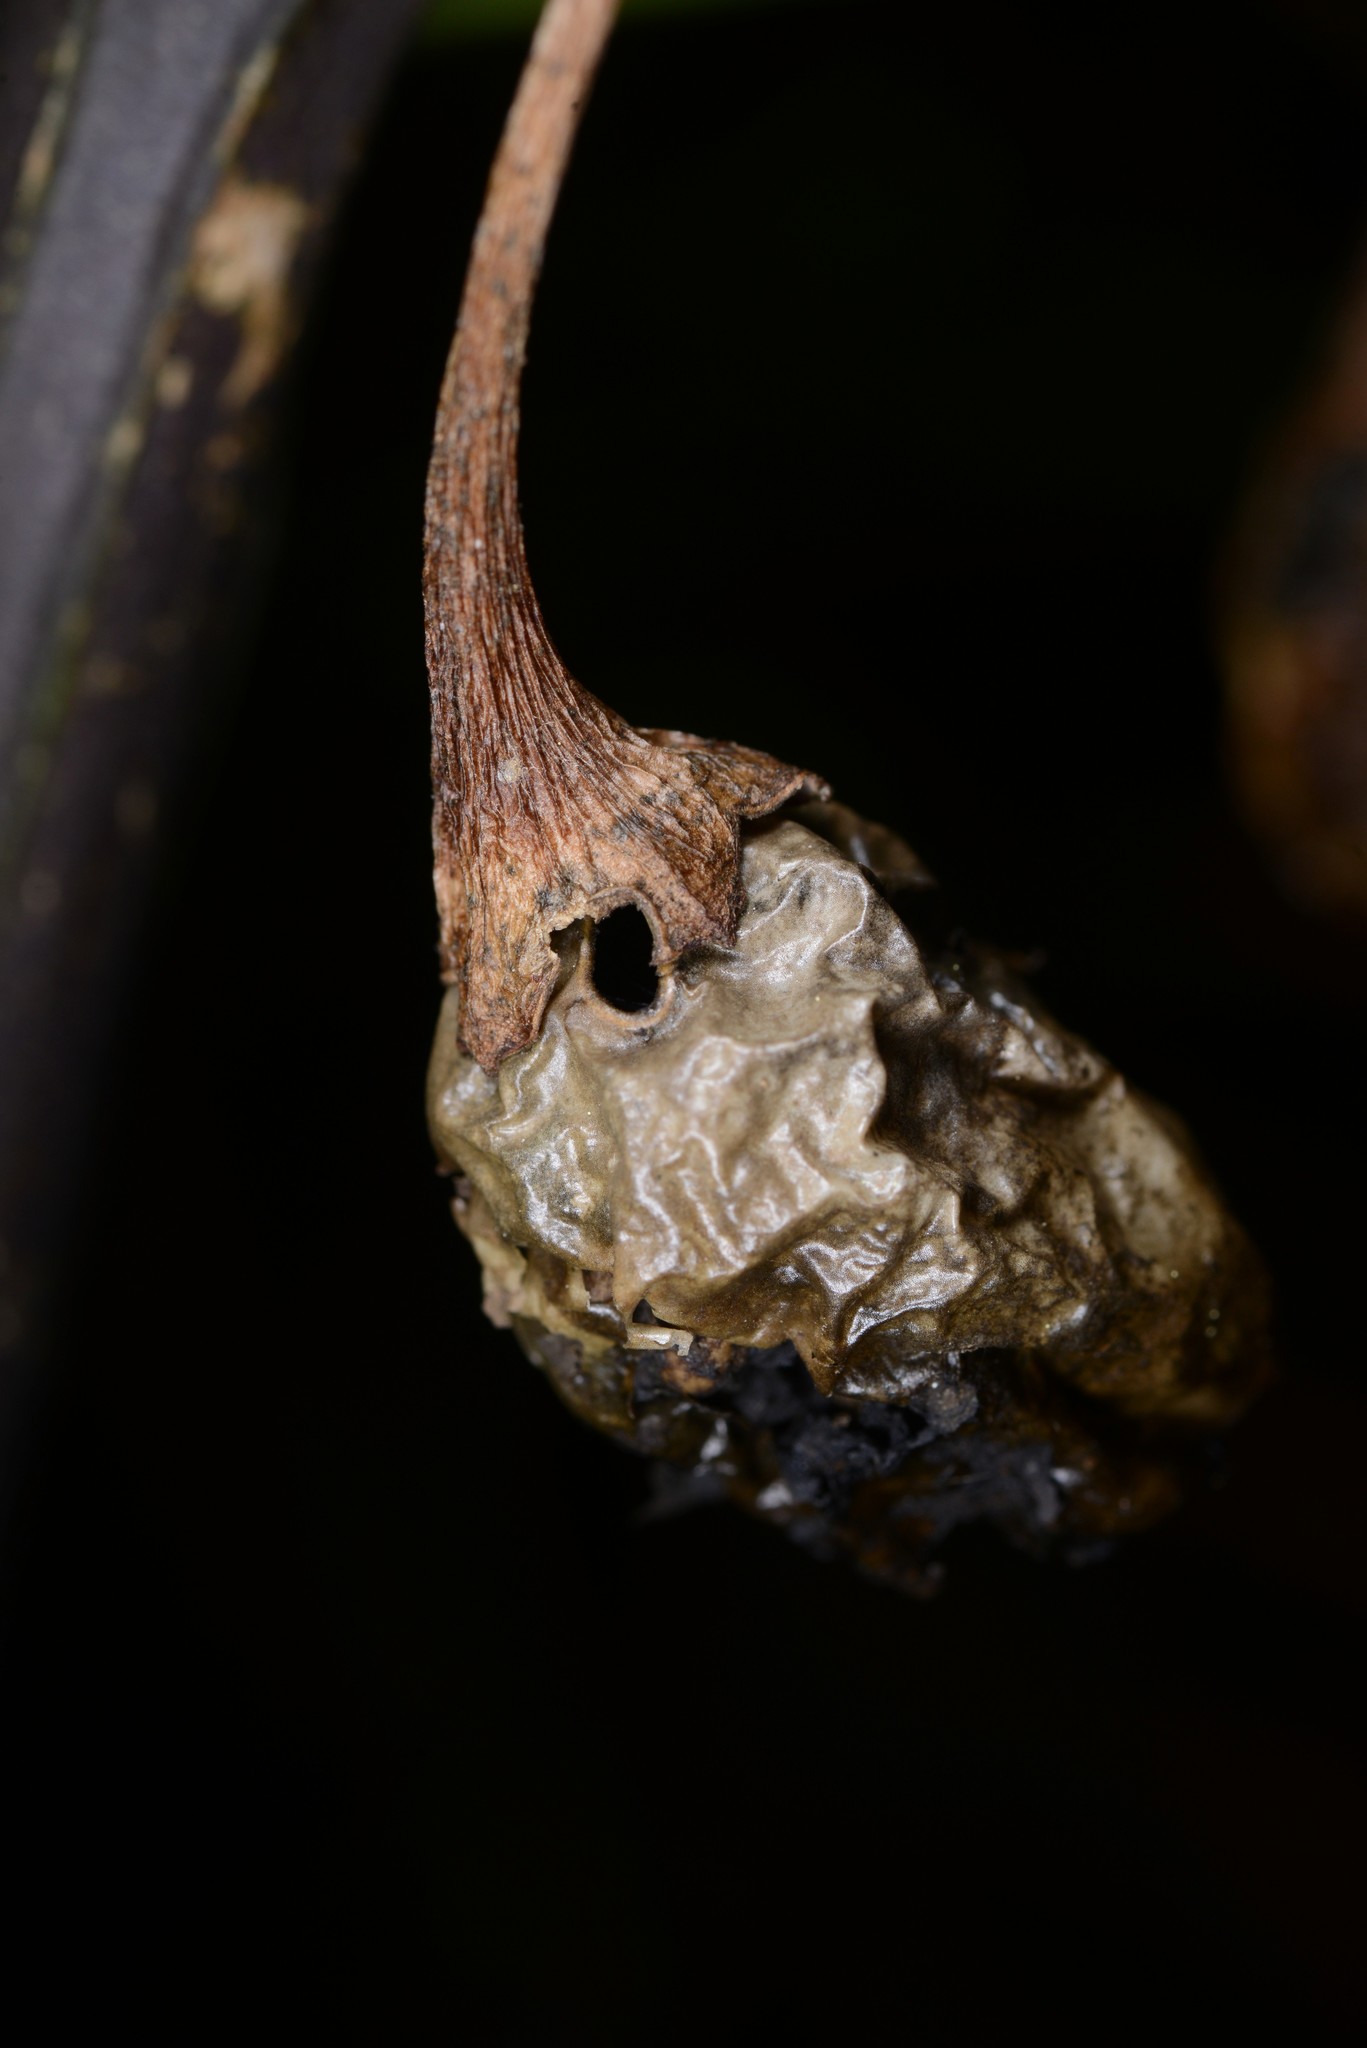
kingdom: Animalia
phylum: Arthropoda
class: Insecta
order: Lepidoptera
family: Crambidae
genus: Sceliodes
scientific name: Sceliodes cordalis
